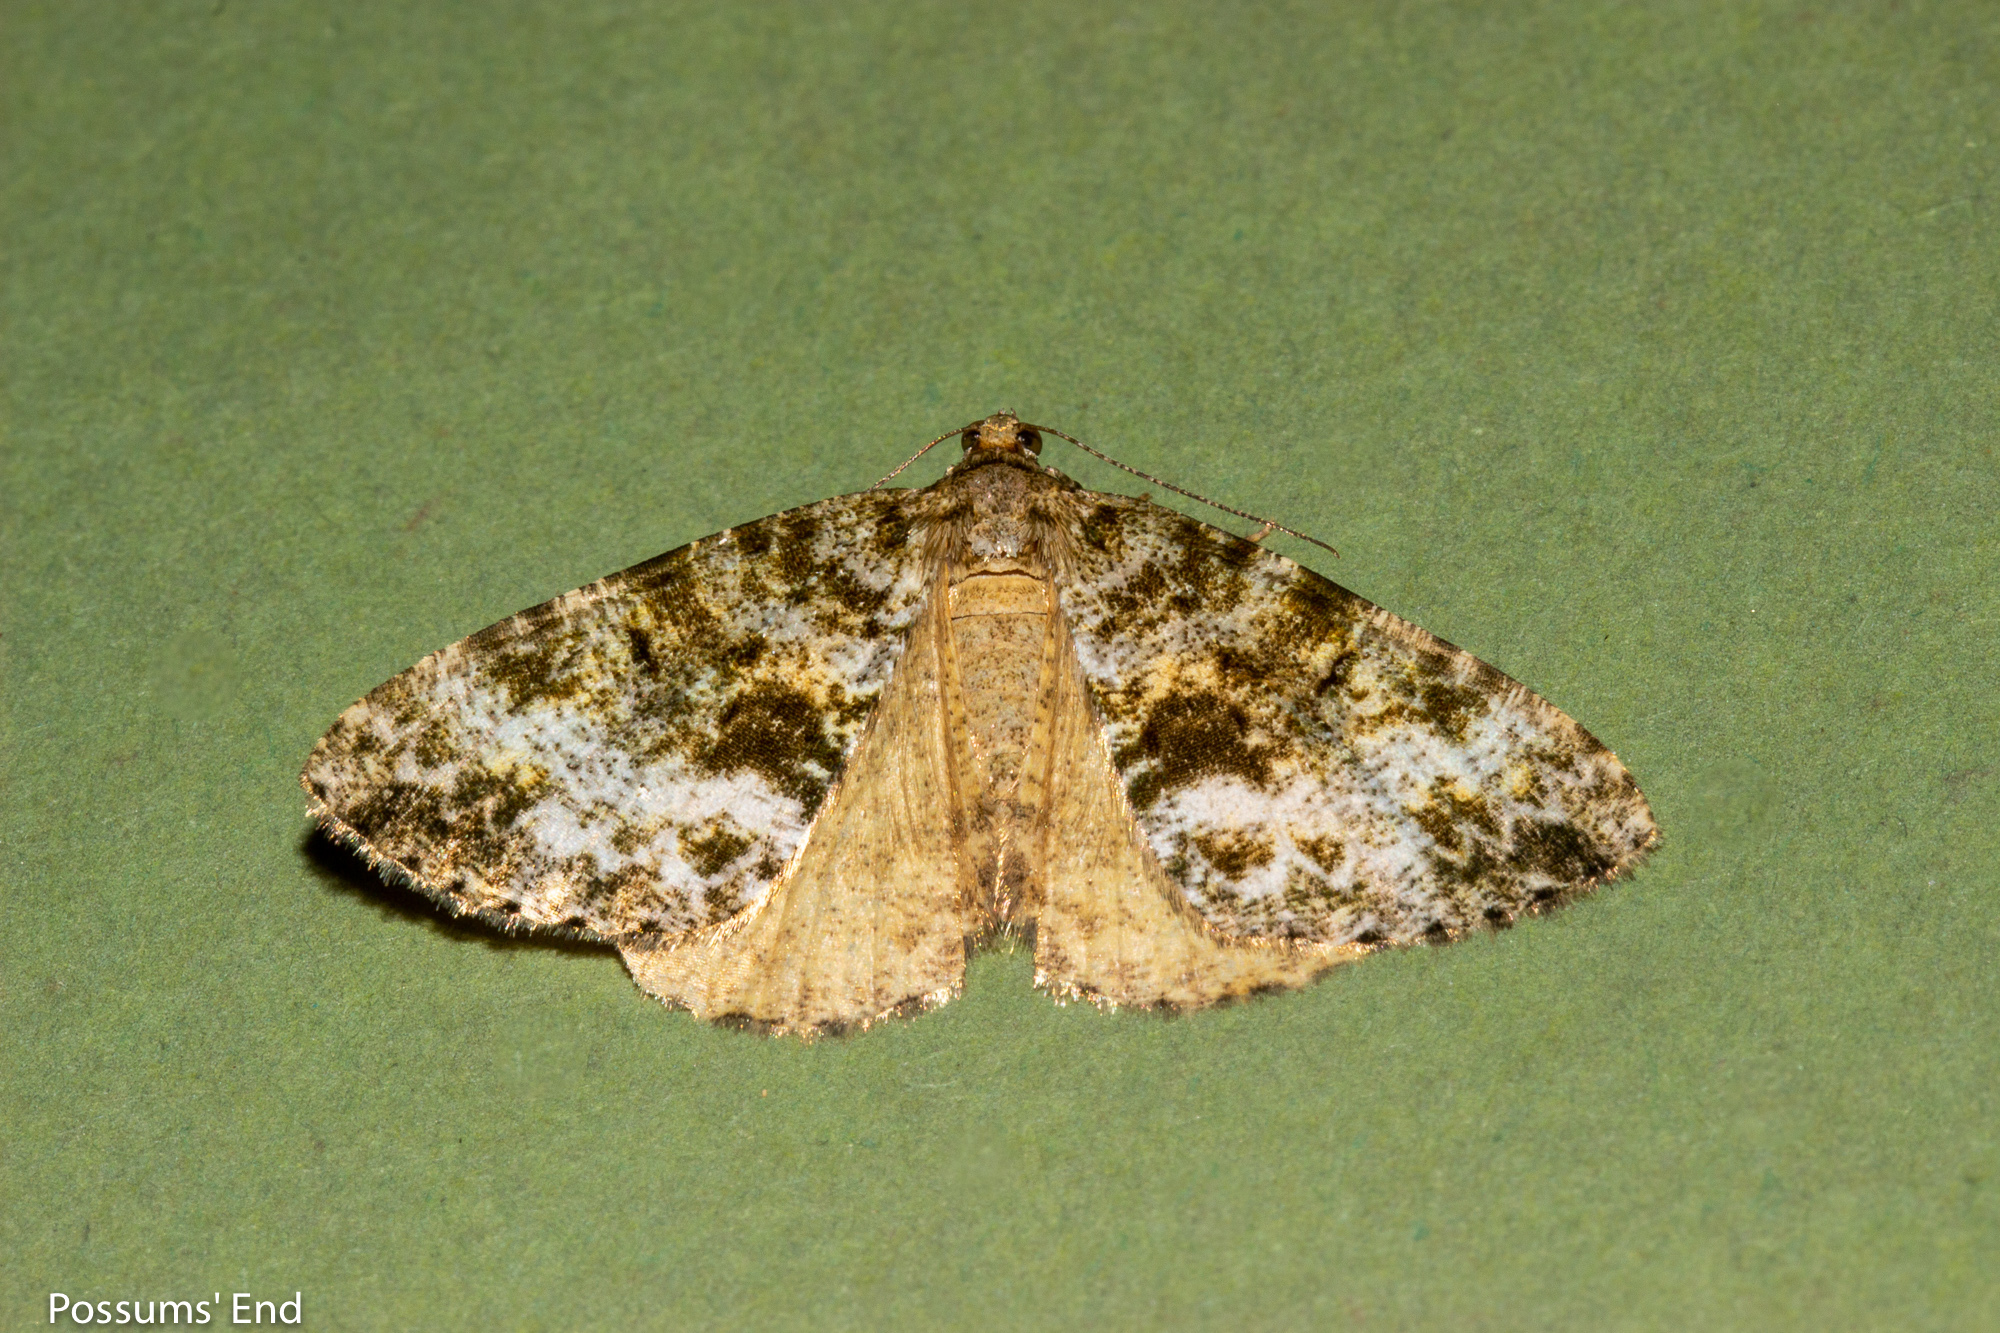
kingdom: Animalia
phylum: Arthropoda
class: Insecta
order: Lepidoptera
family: Geometridae
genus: Pseudocoremia
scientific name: Pseudocoremia lactiflua
